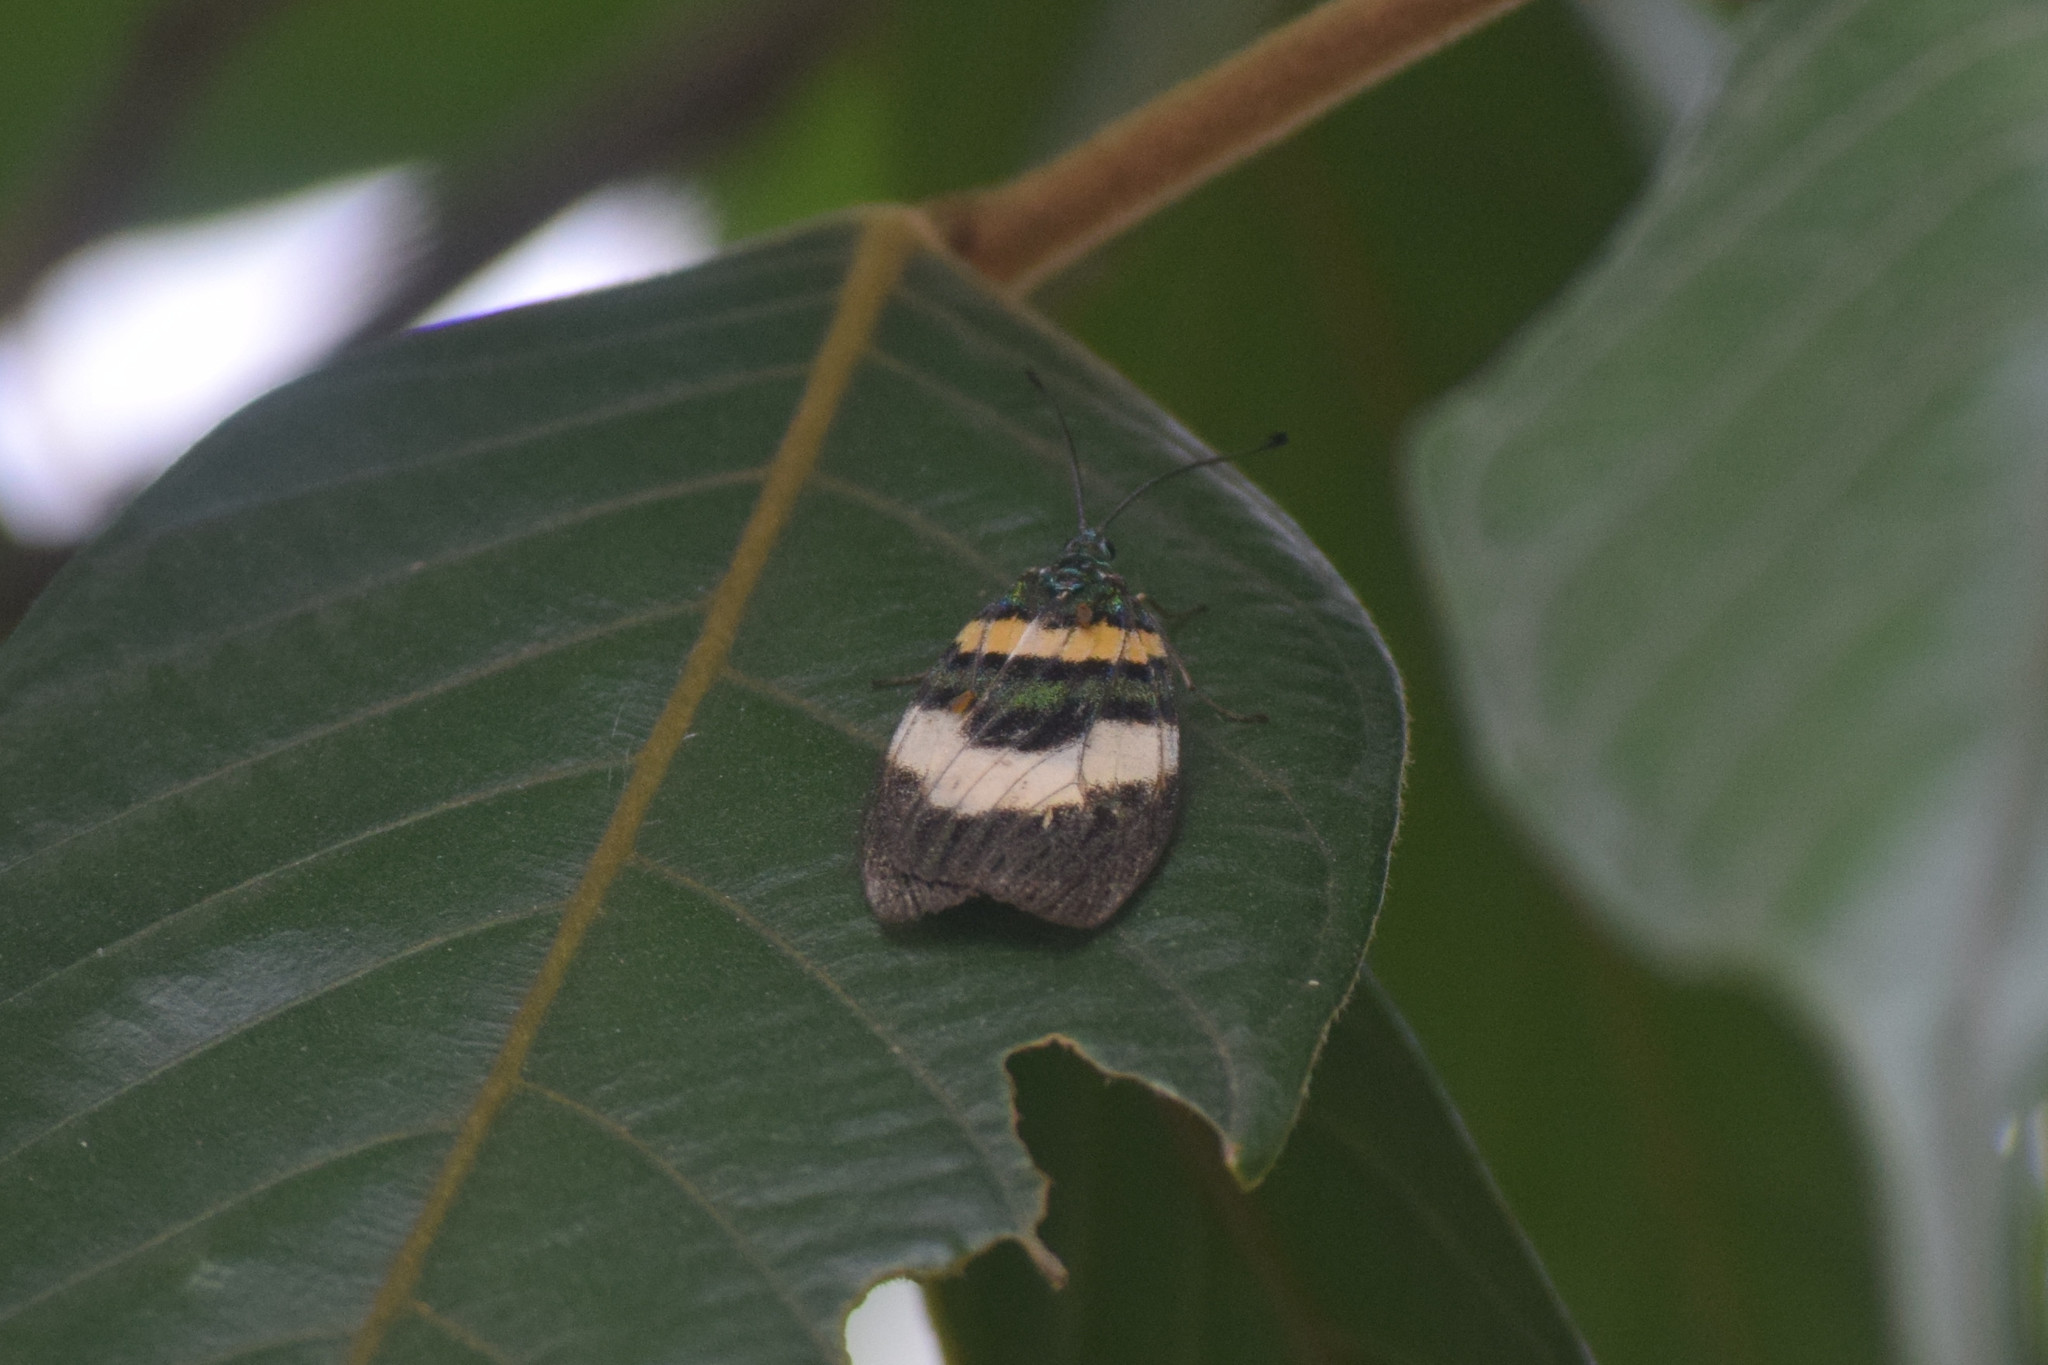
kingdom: Animalia
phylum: Arthropoda
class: Insecta
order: Lepidoptera
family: Zygaenidae
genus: Chalcophaedra
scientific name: Chalcophaedra zuleika
